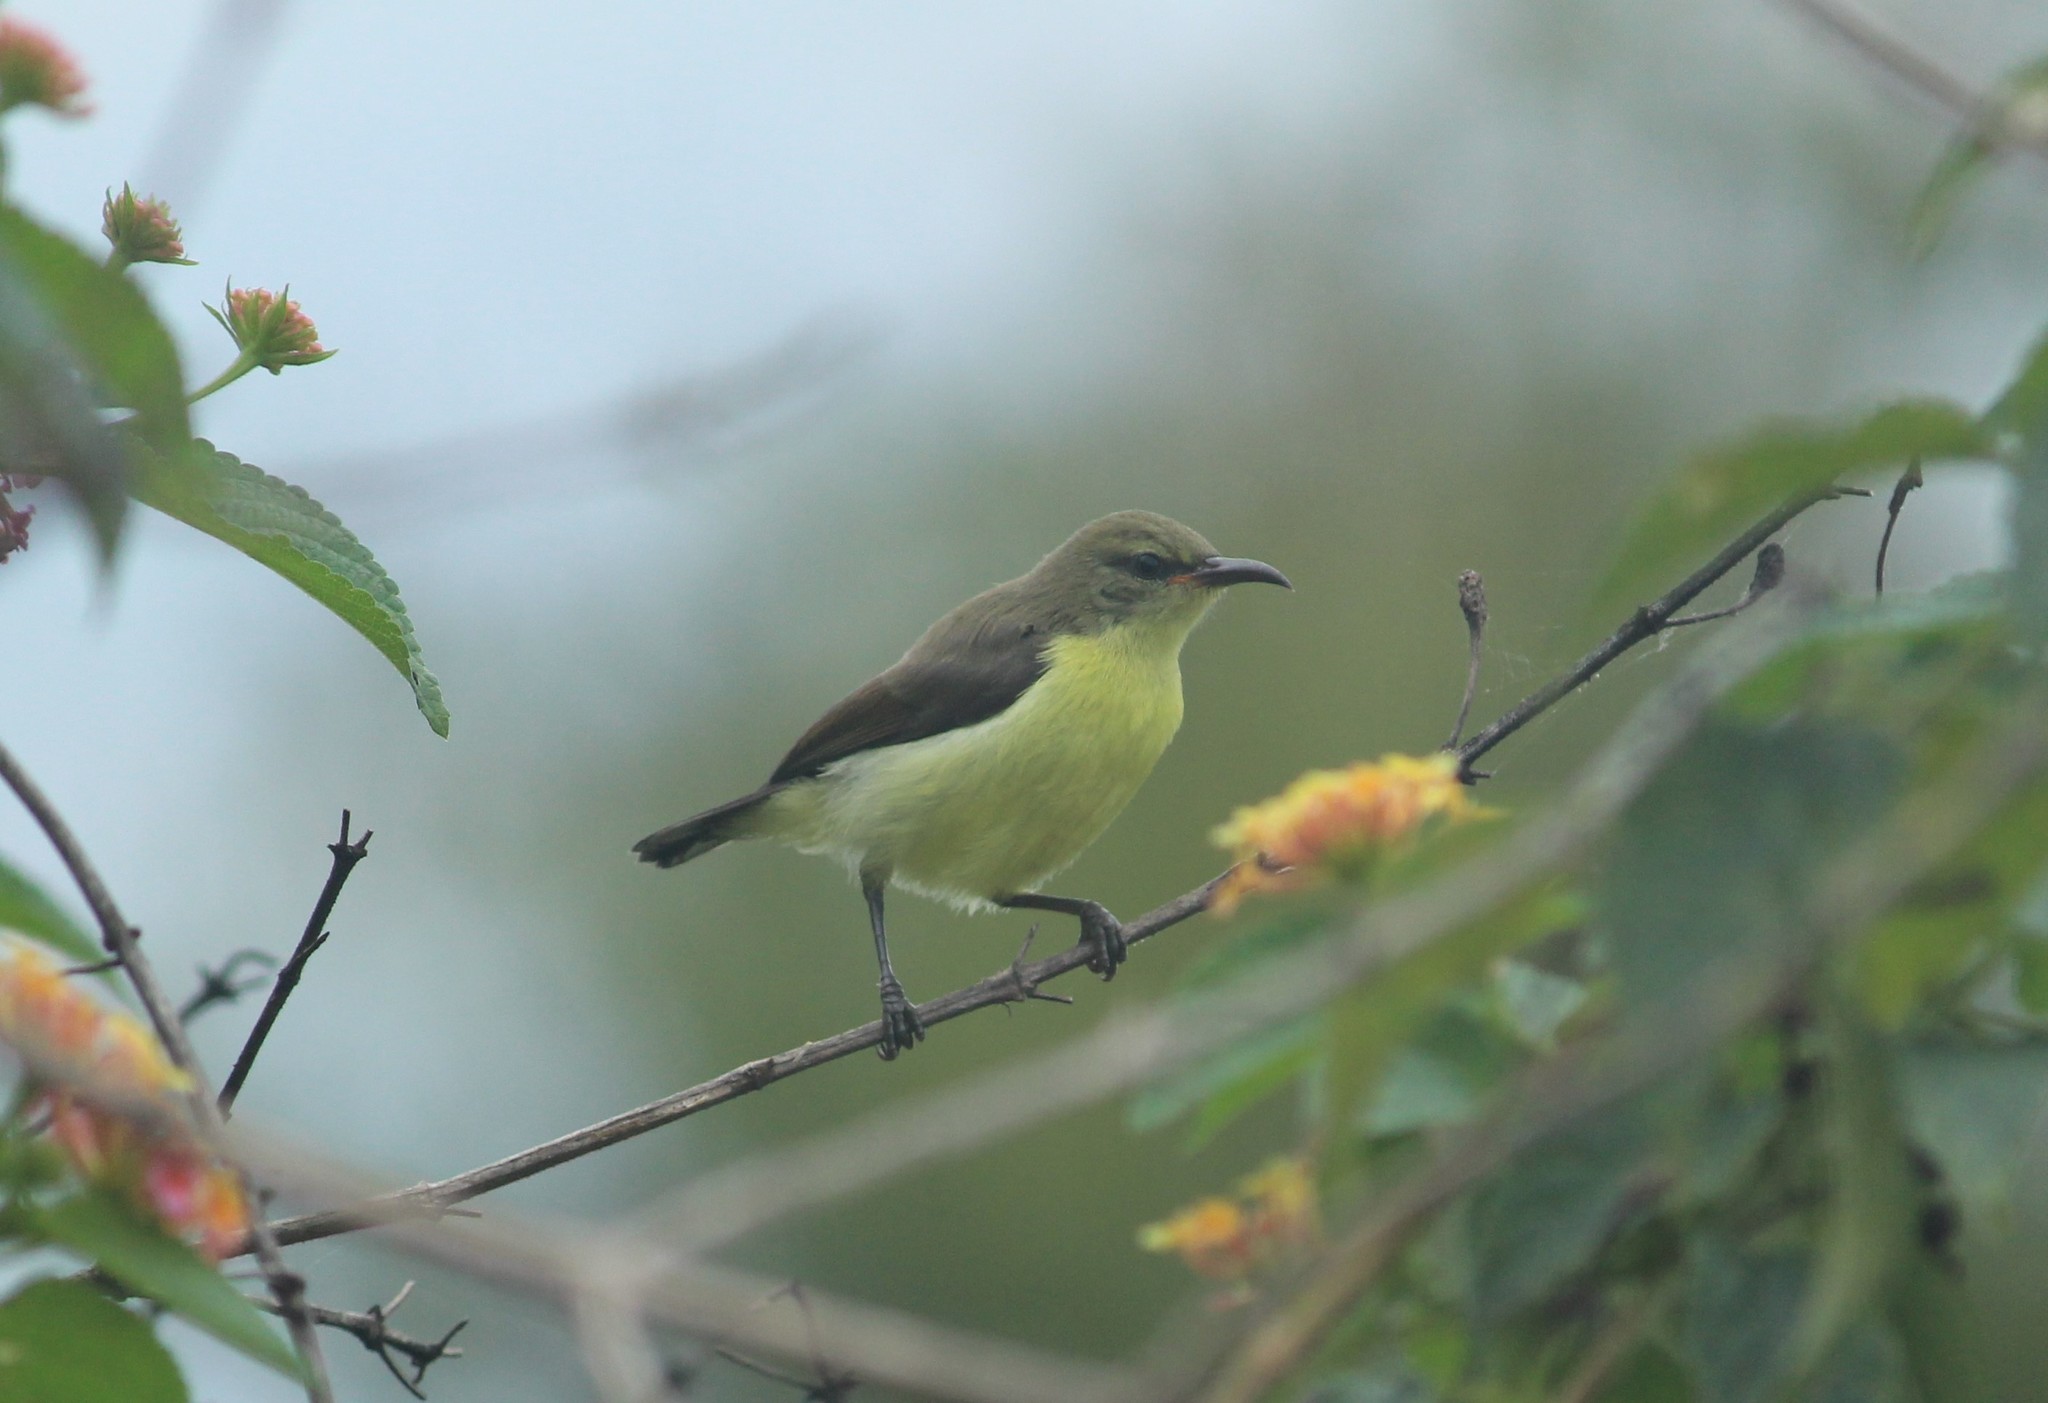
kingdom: Animalia
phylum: Chordata
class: Aves
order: Passeriformes
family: Nectariniidae
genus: Leptocoma
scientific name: Leptocoma zeylonica
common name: Purple-rumped sunbird
